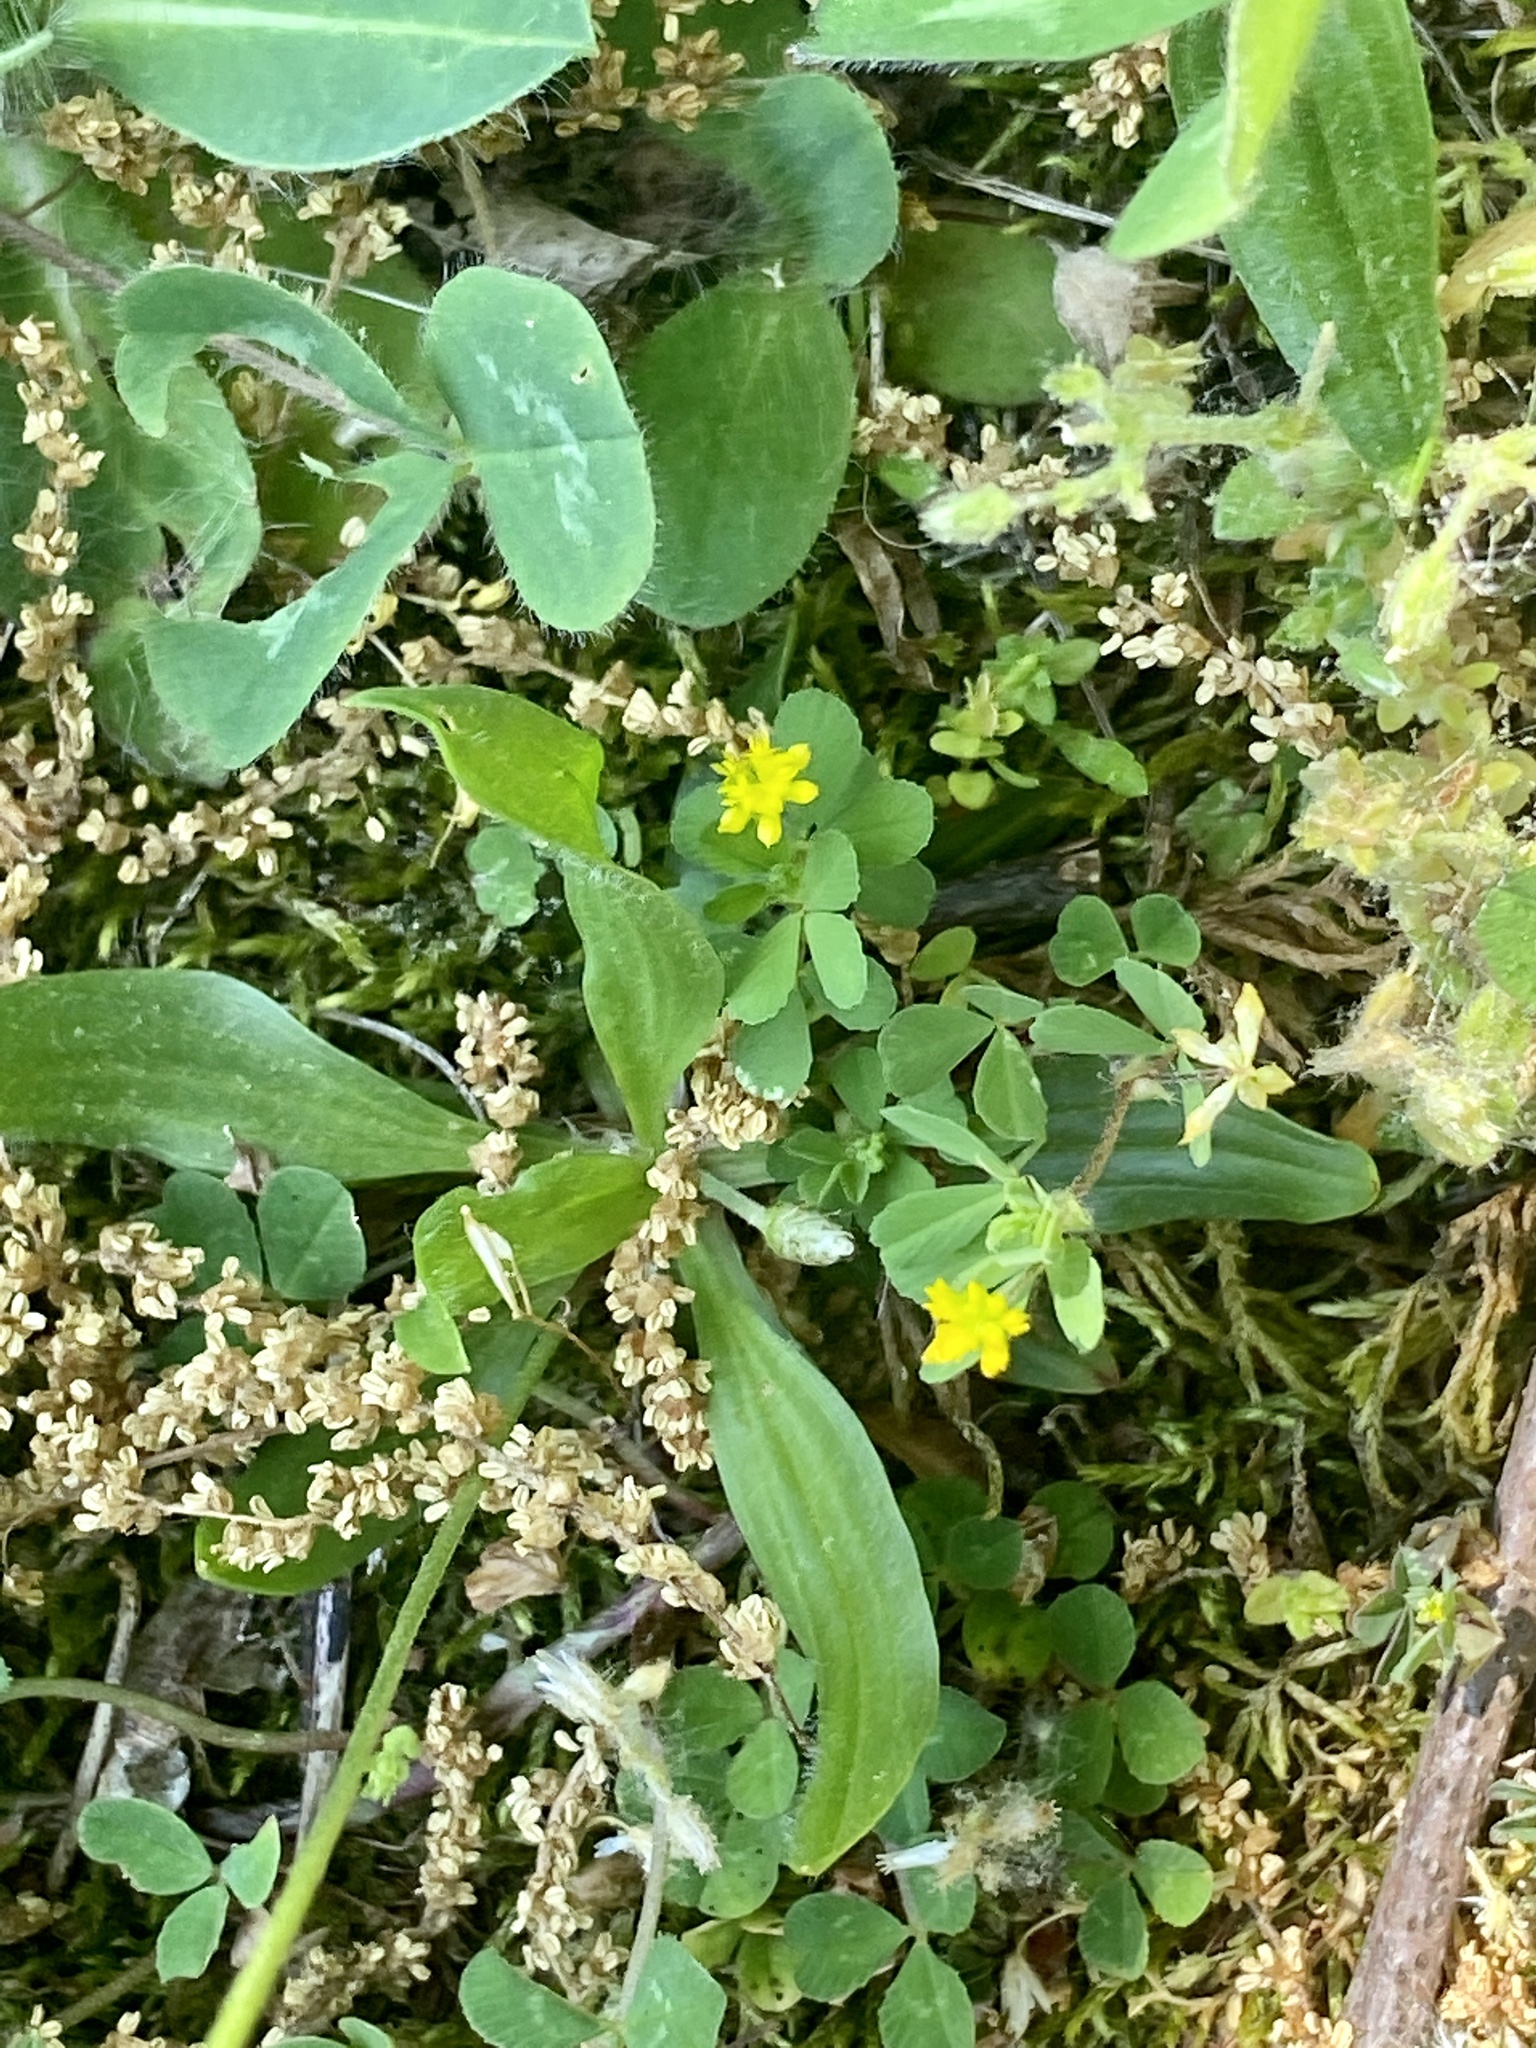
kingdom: Plantae
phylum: Tracheophyta
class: Magnoliopsida
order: Fabales
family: Fabaceae
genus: Trifolium
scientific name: Trifolium dubium
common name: Suckling clover
